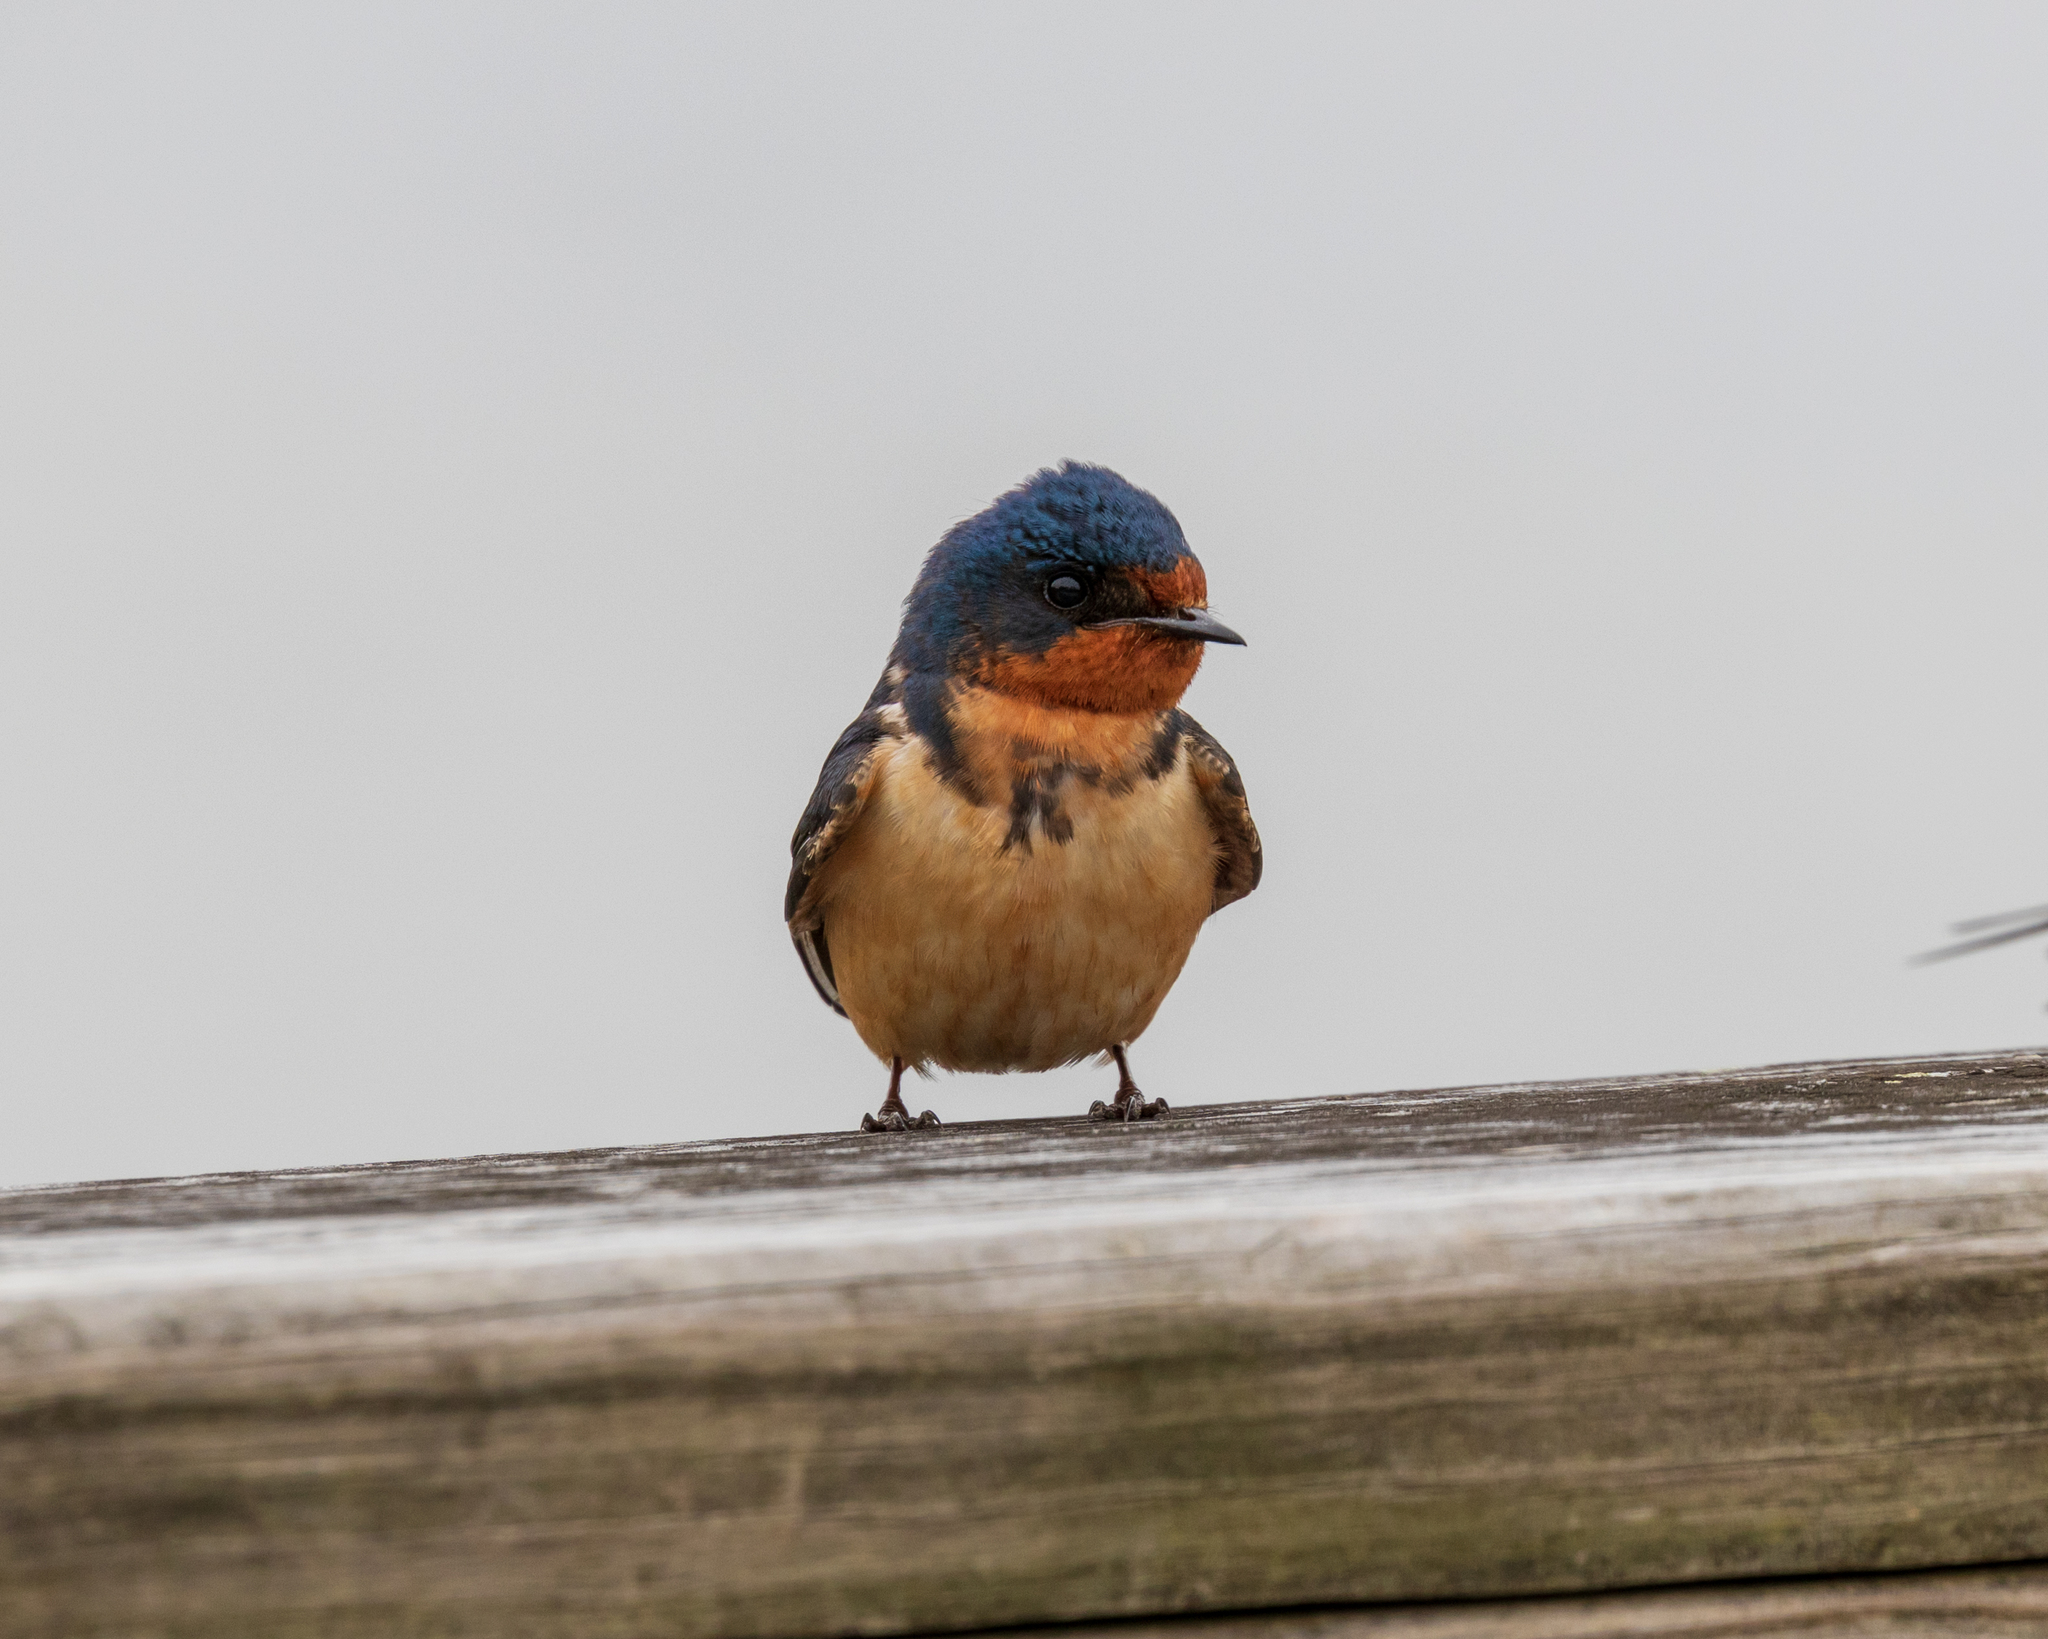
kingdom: Animalia
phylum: Chordata
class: Aves
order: Passeriformes
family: Hirundinidae
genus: Hirundo
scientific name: Hirundo rustica
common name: Barn swallow
